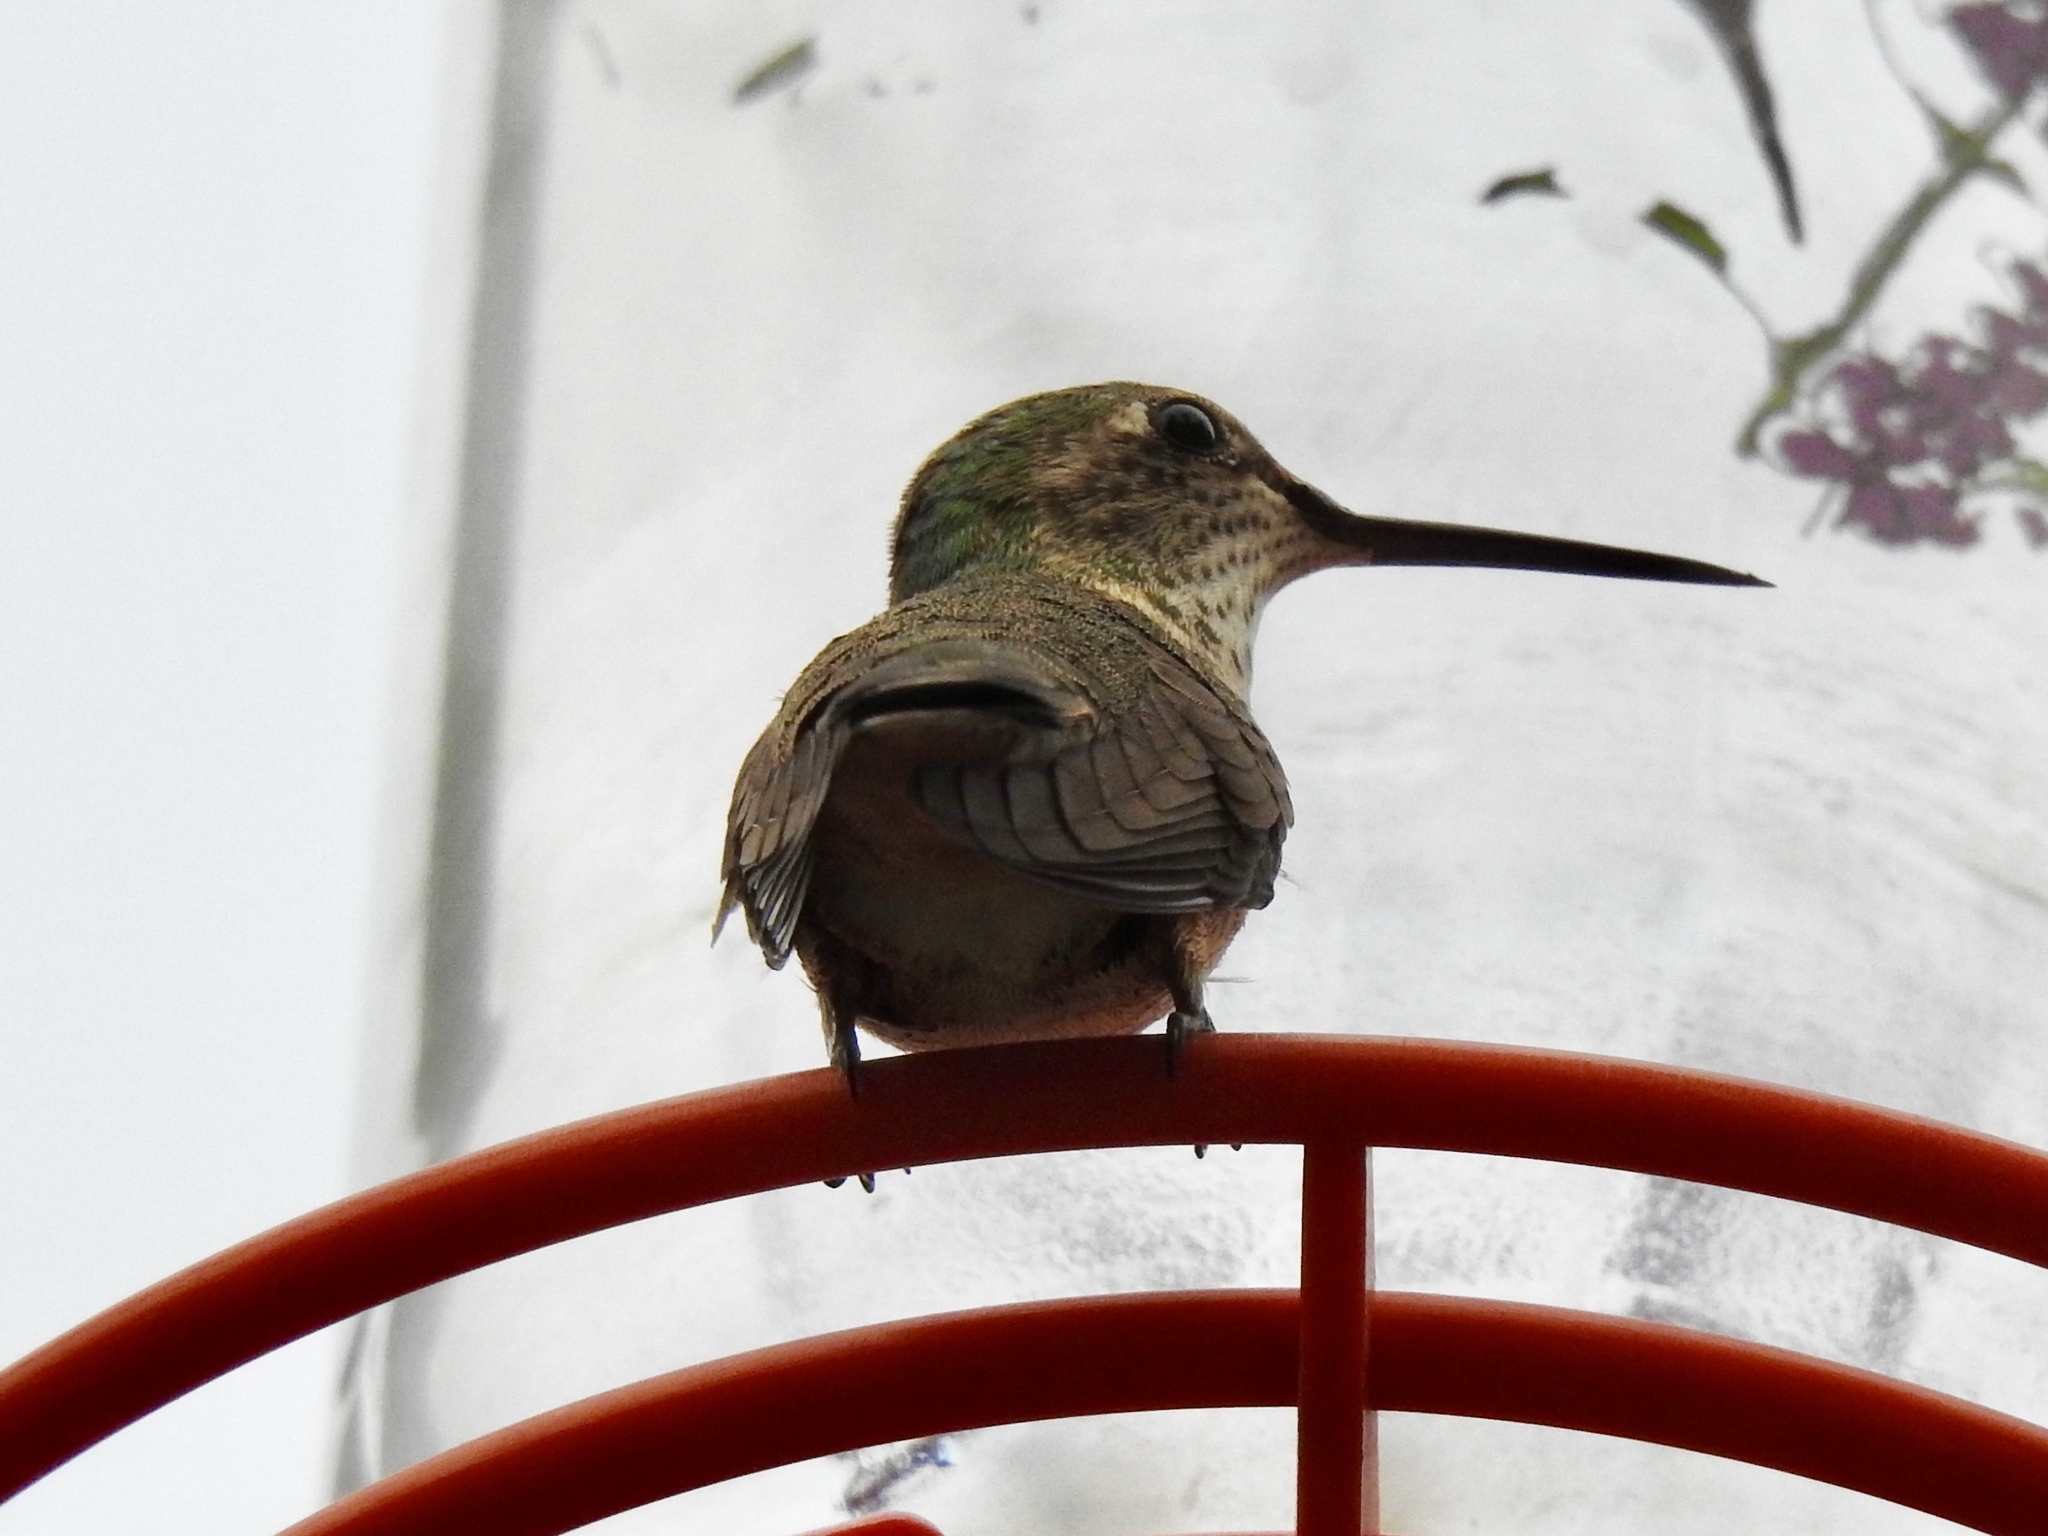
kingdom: Animalia
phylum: Chordata
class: Aves
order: Apodiformes
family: Trochilidae
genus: Selasphorus
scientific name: Selasphorus platycercus
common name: Broad-tailed hummingbird
